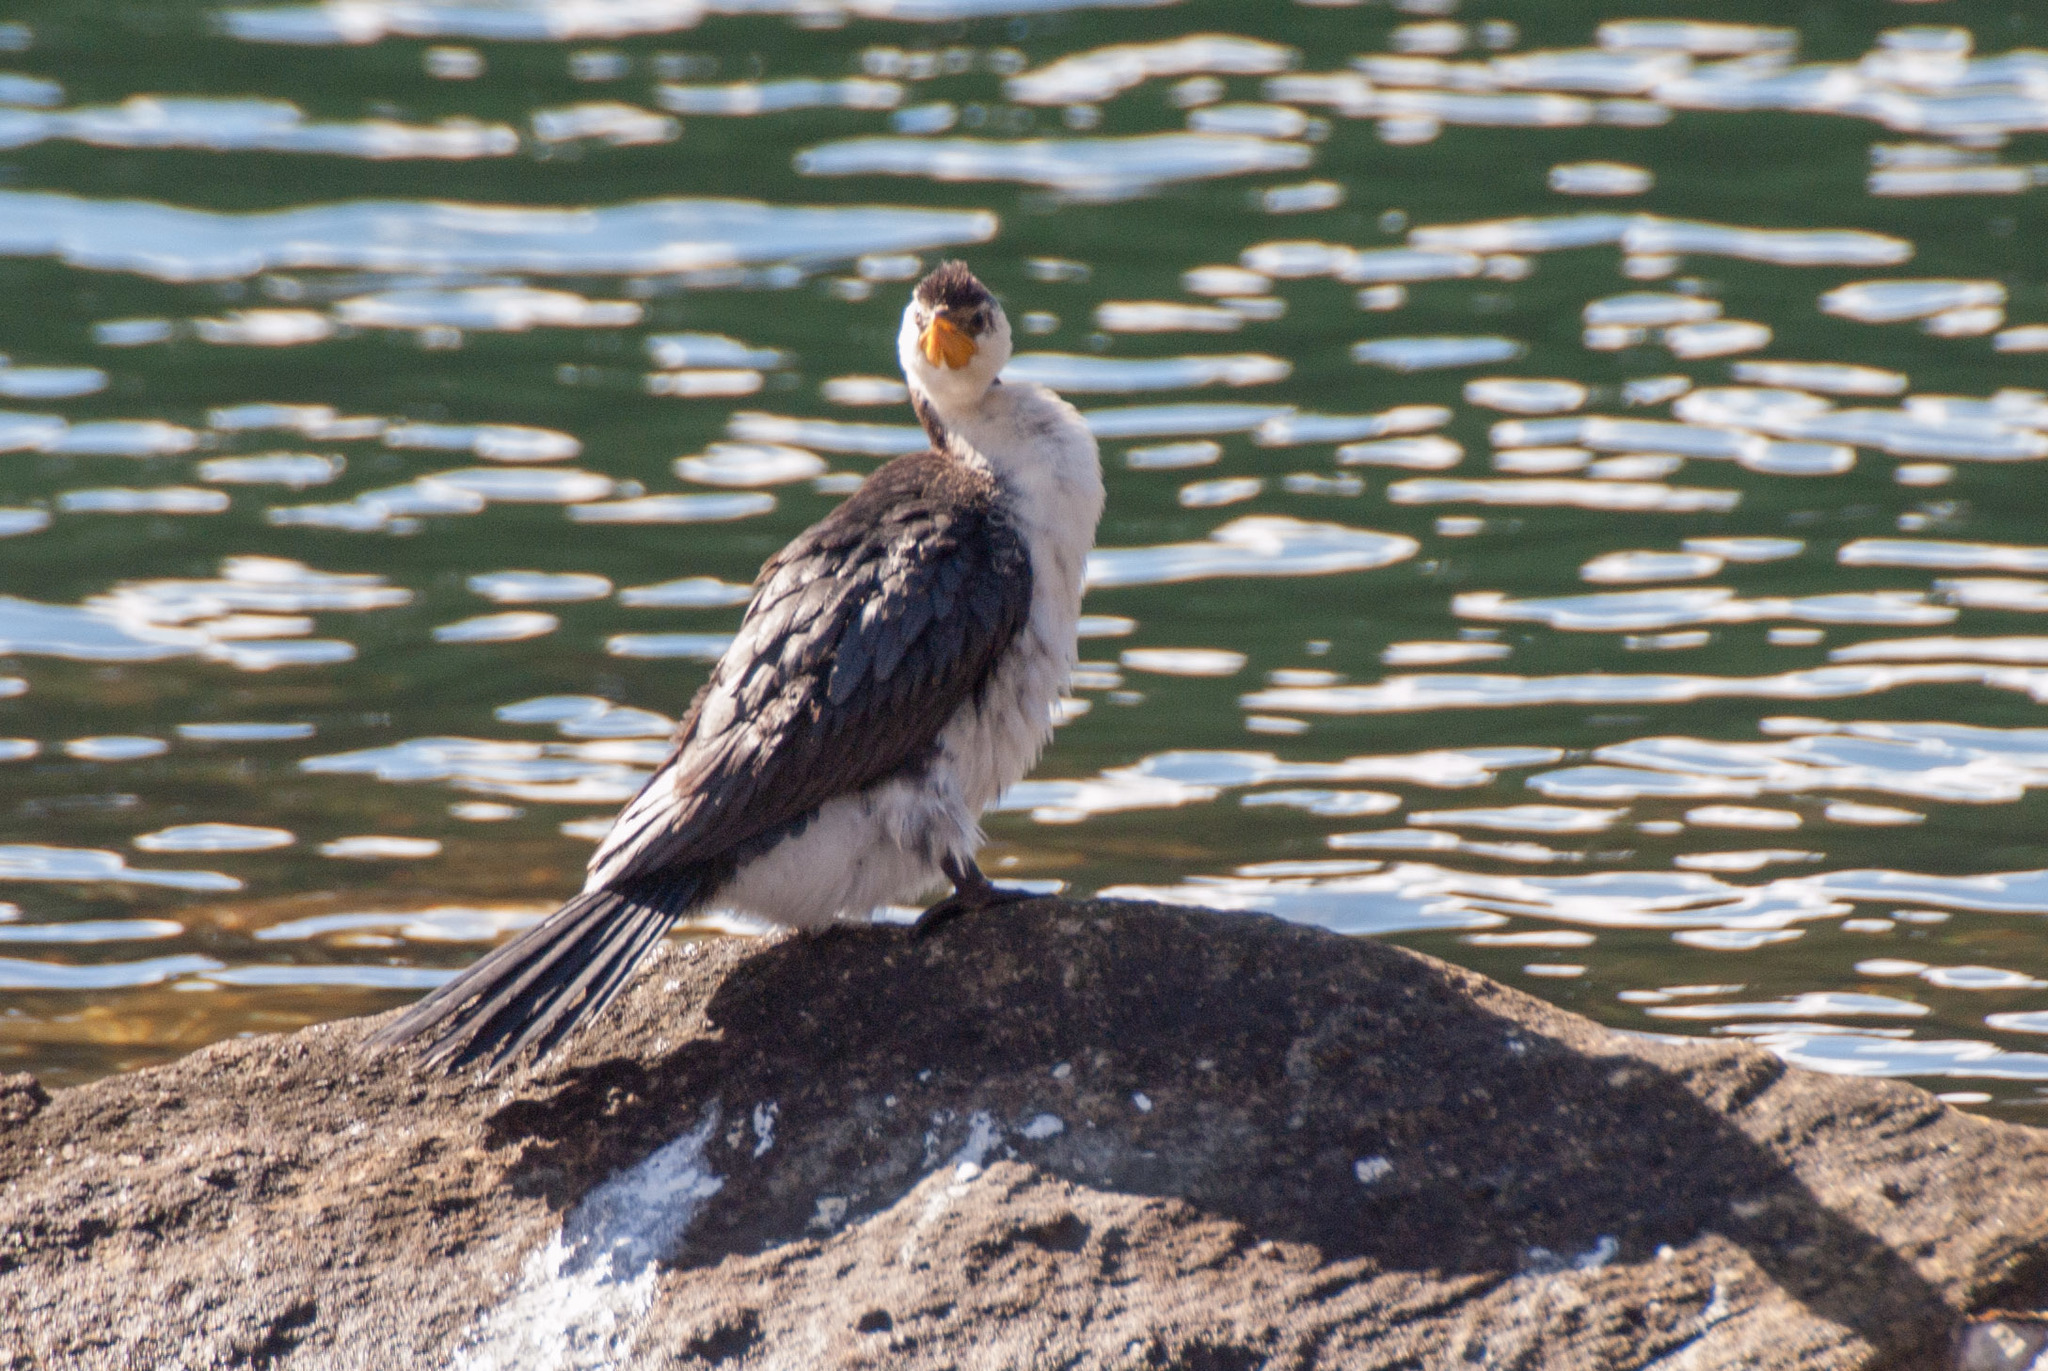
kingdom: Animalia
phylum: Chordata
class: Aves
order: Suliformes
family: Phalacrocoracidae
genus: Microcarbo
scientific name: Microcarbo melanoleucos
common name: Little pied cormorant
